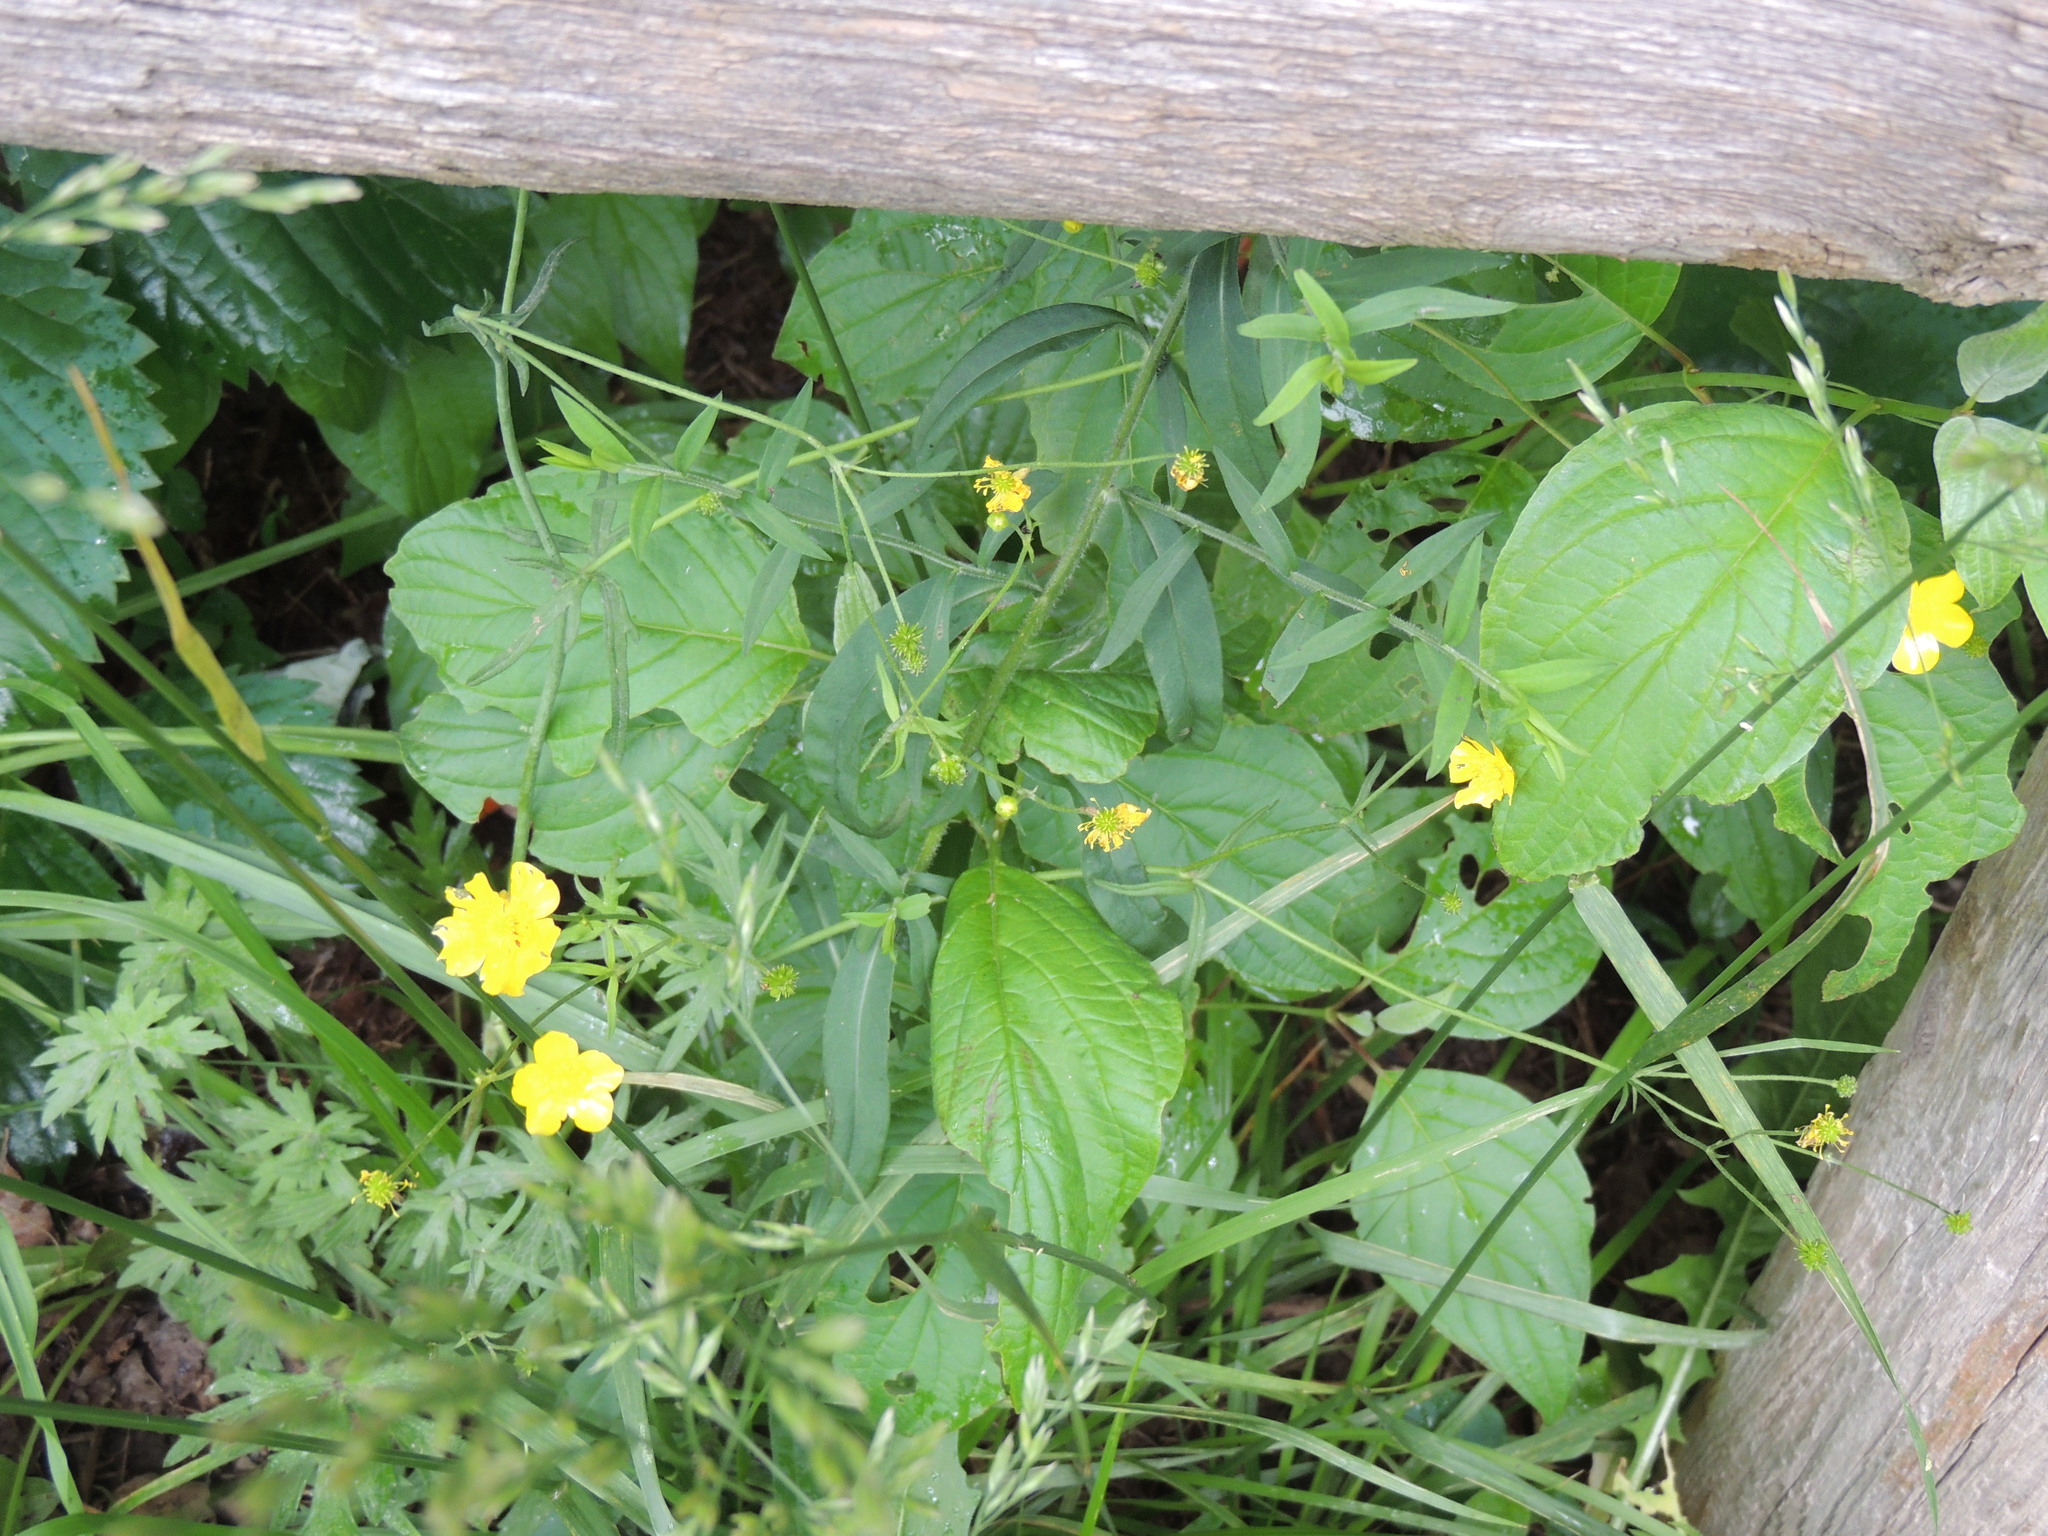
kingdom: Plantae
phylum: Tracheophyta
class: Magnoliopsida
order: Ranunculales
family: Ranunculaceae
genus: Ranunculus
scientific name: Ranunculus acris
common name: Meadow buttercup
